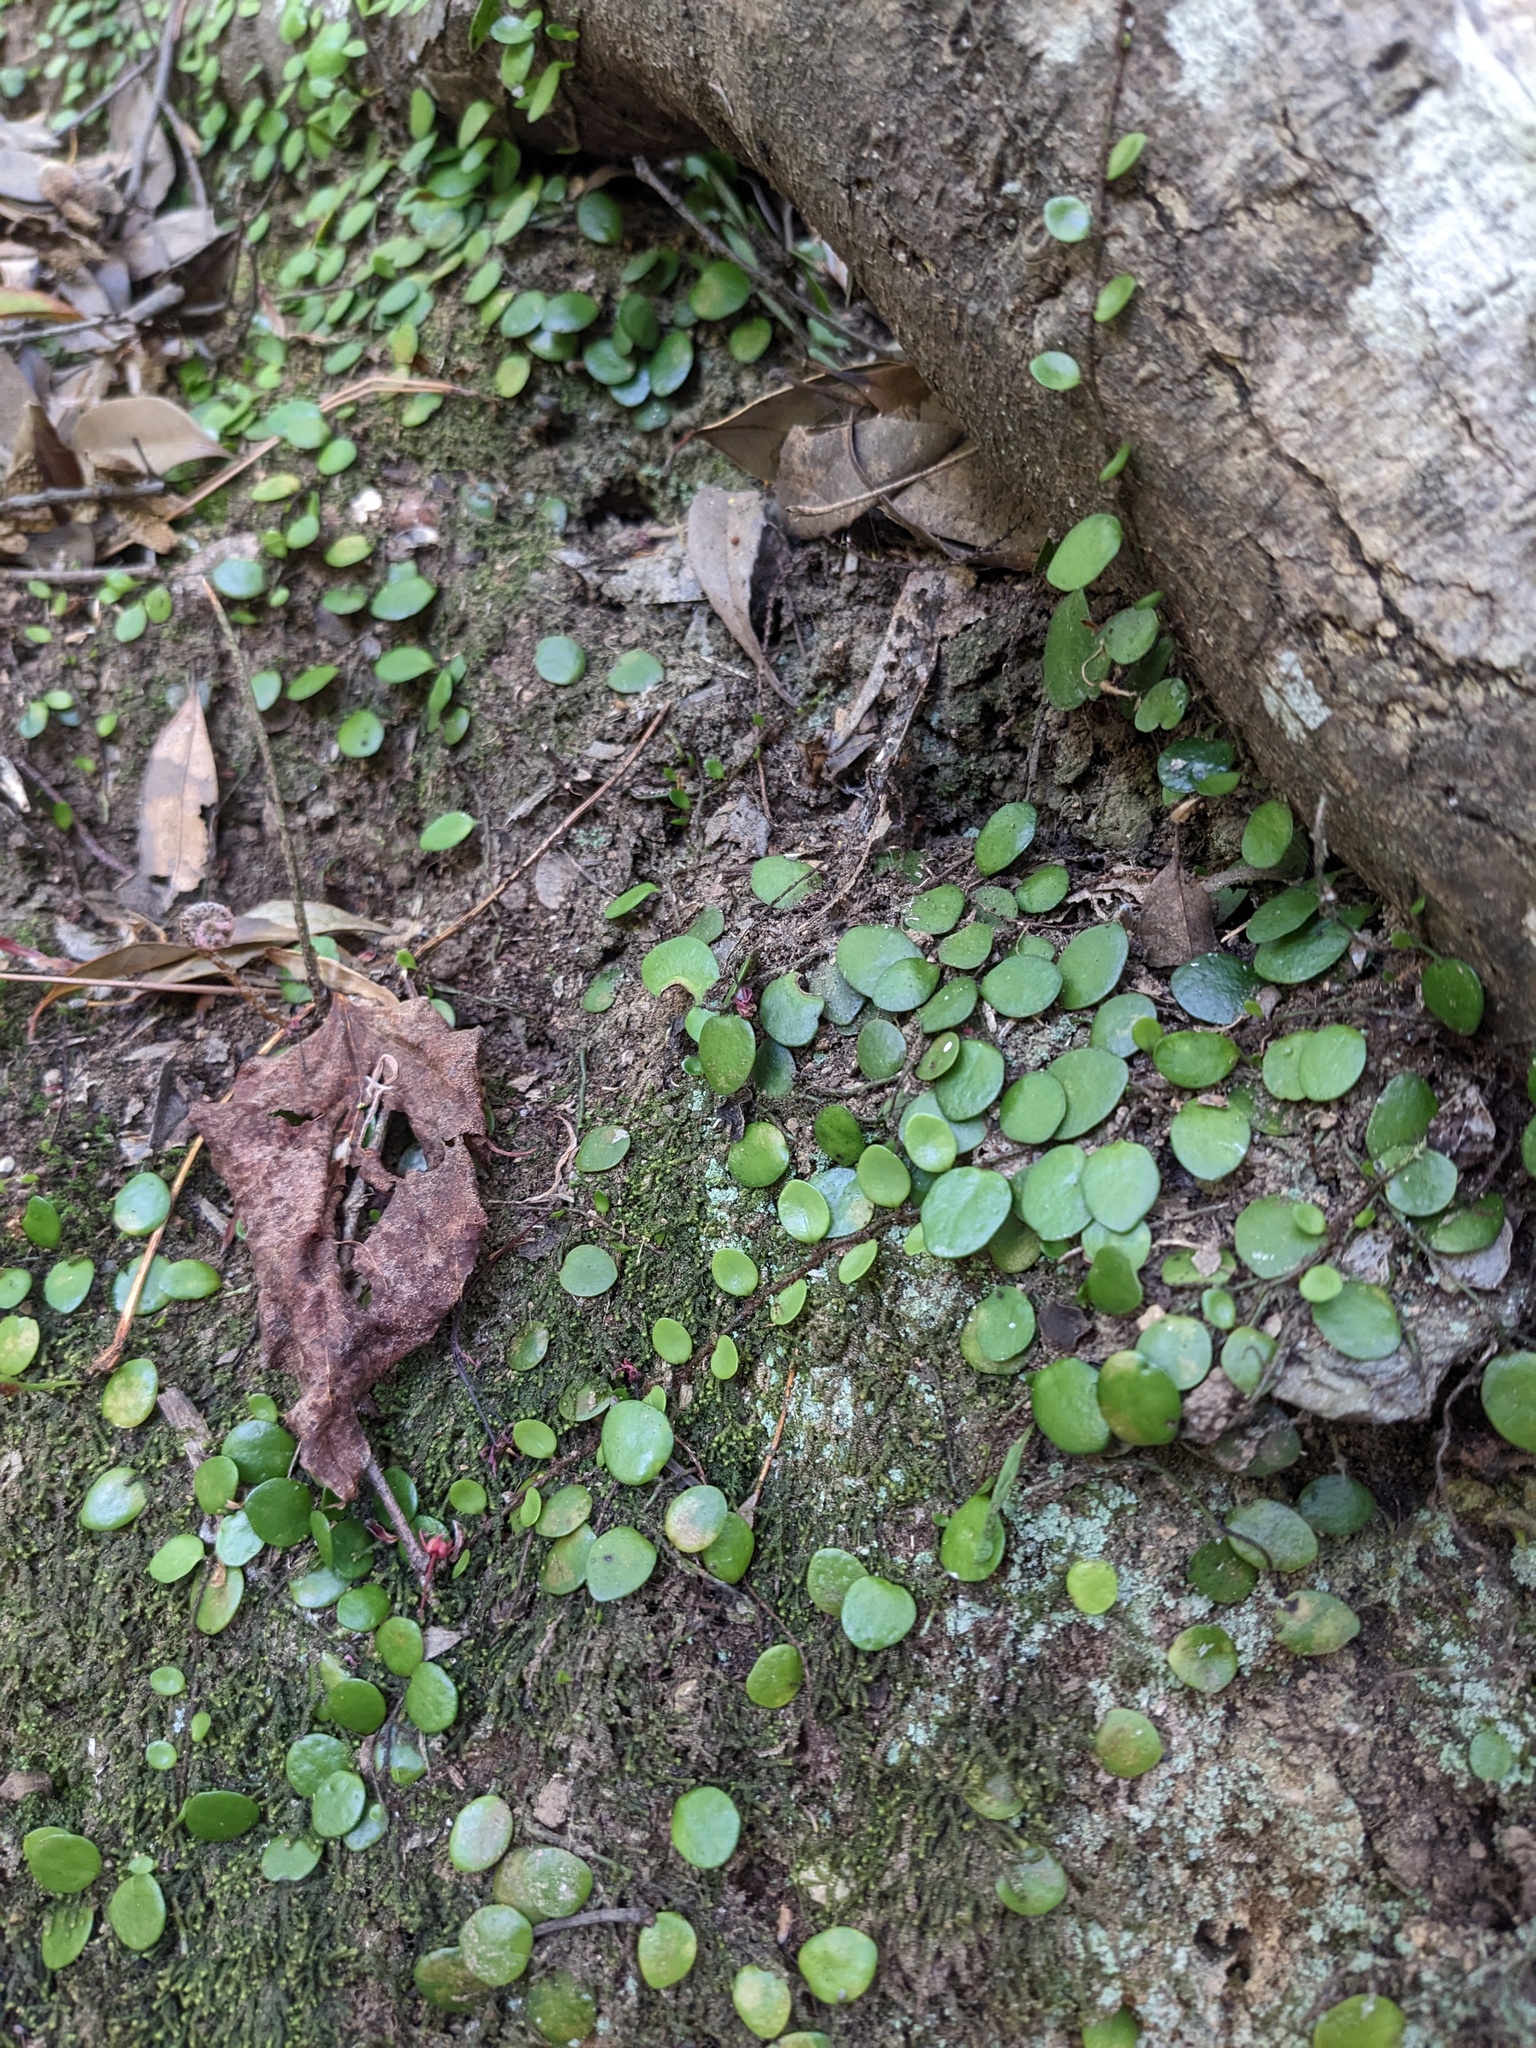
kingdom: Plantae
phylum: Tracheophyta
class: Polypodiopsida
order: Polypodiales
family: Polypodiaceae
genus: Lepisorus
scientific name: Lepisorus microphyllus
